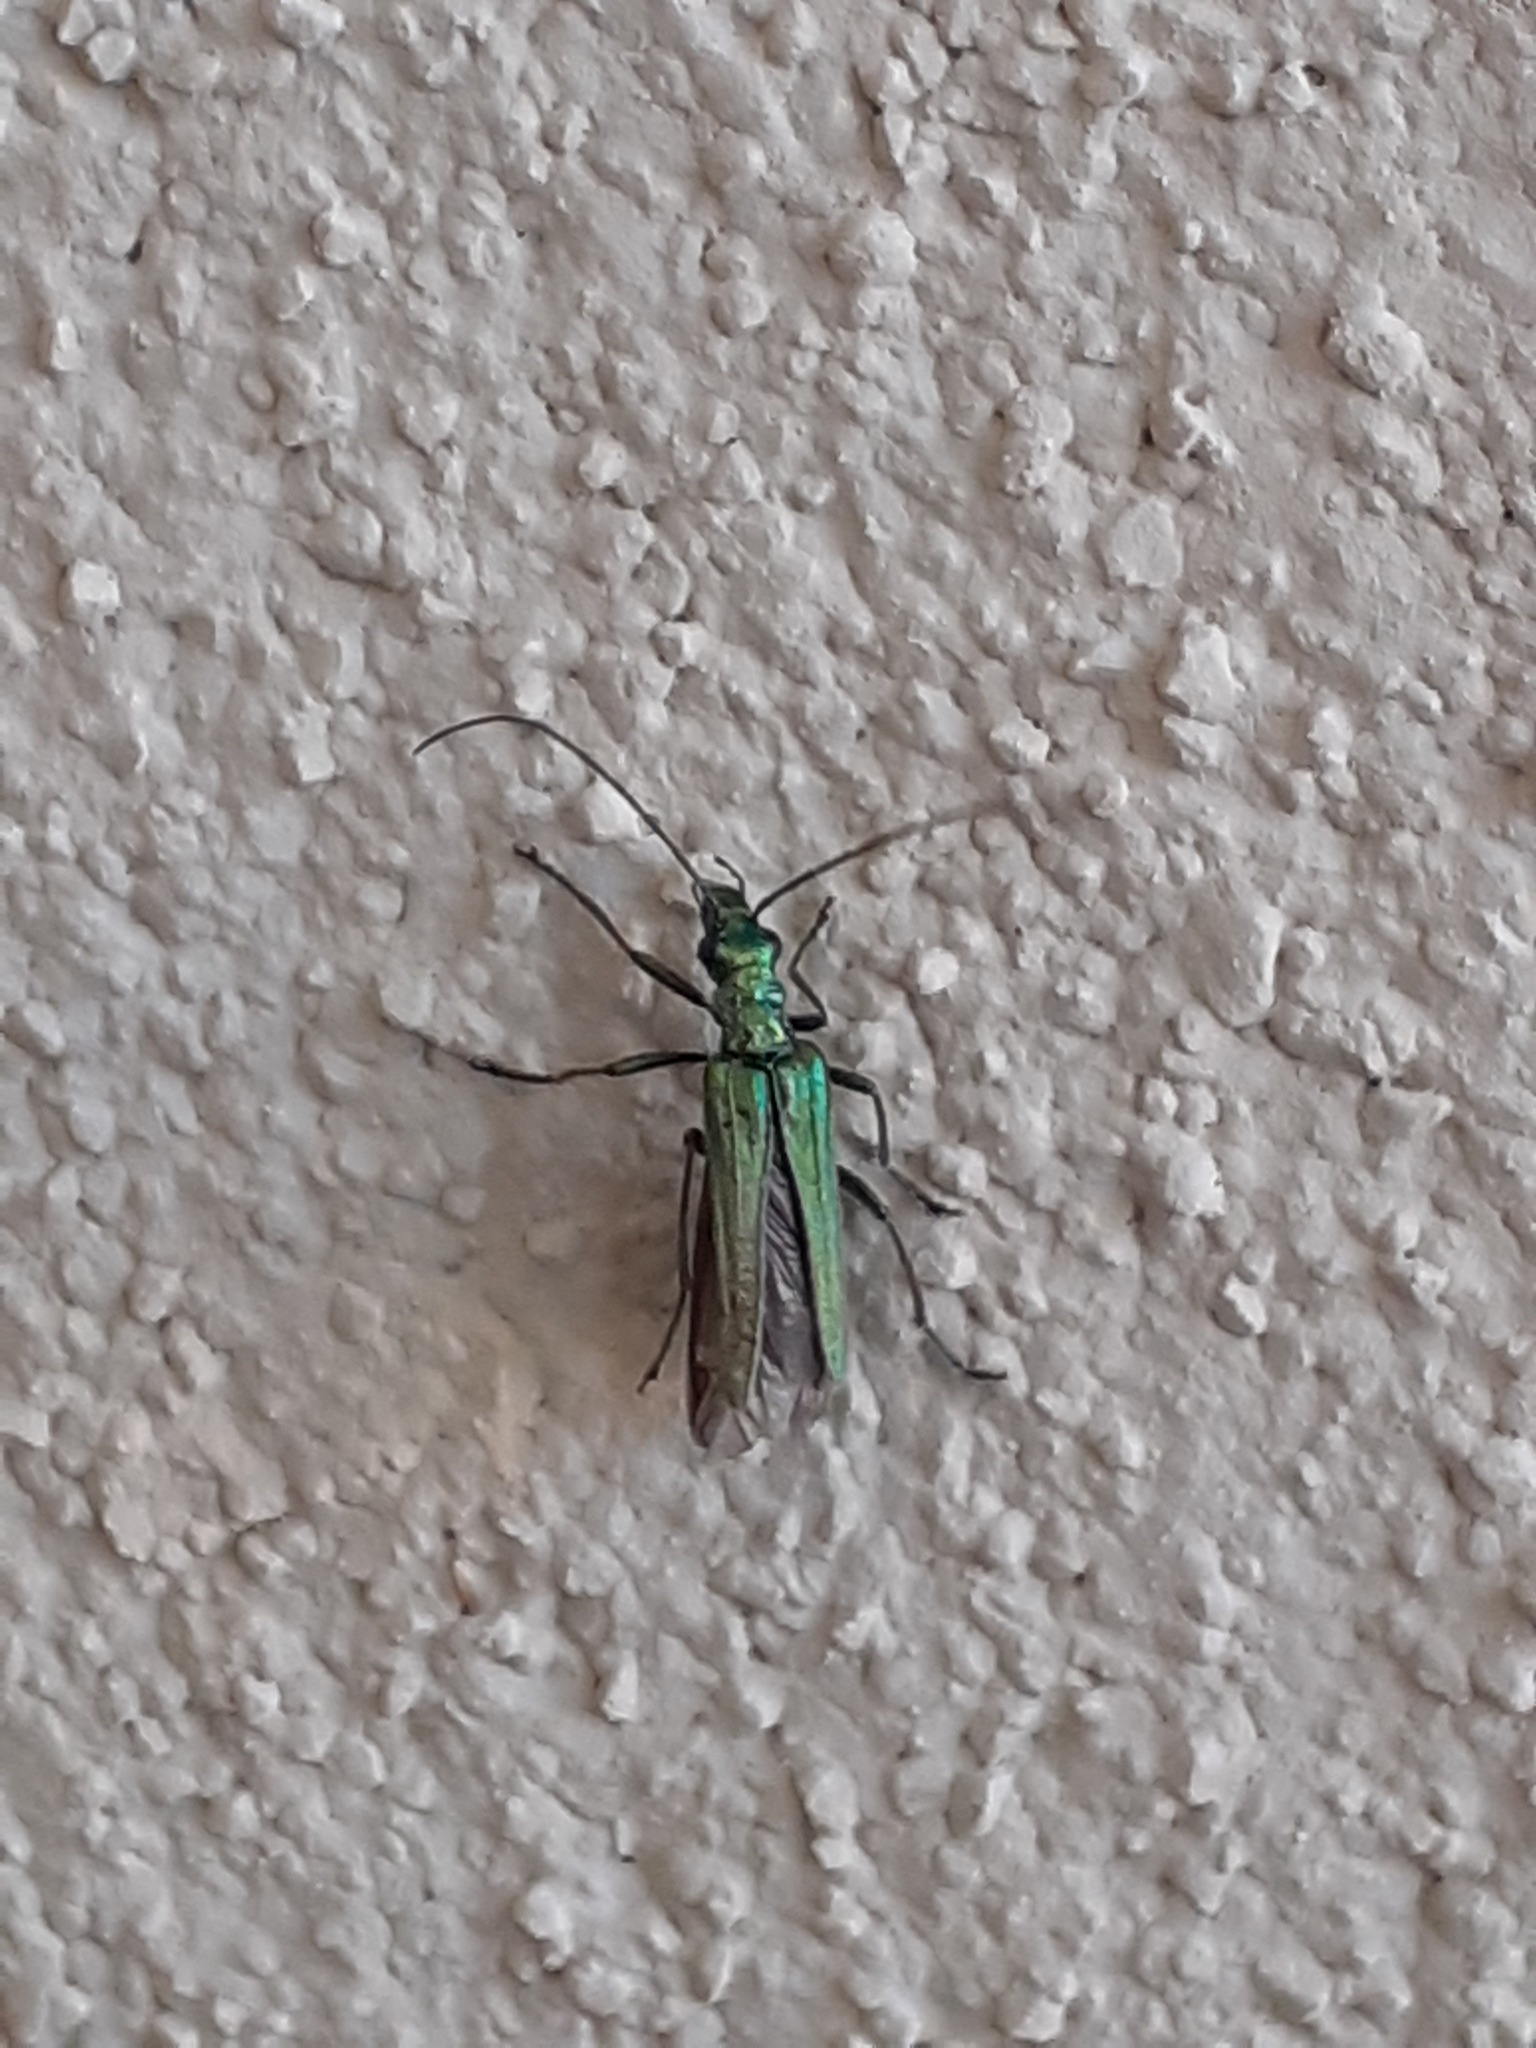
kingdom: Animalia
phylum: Arthropoda
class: Insecta
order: Coleoptera
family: Oedemeridae
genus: Oedemera
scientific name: Oedemera nobilis
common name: Swollen-thighed beetle
